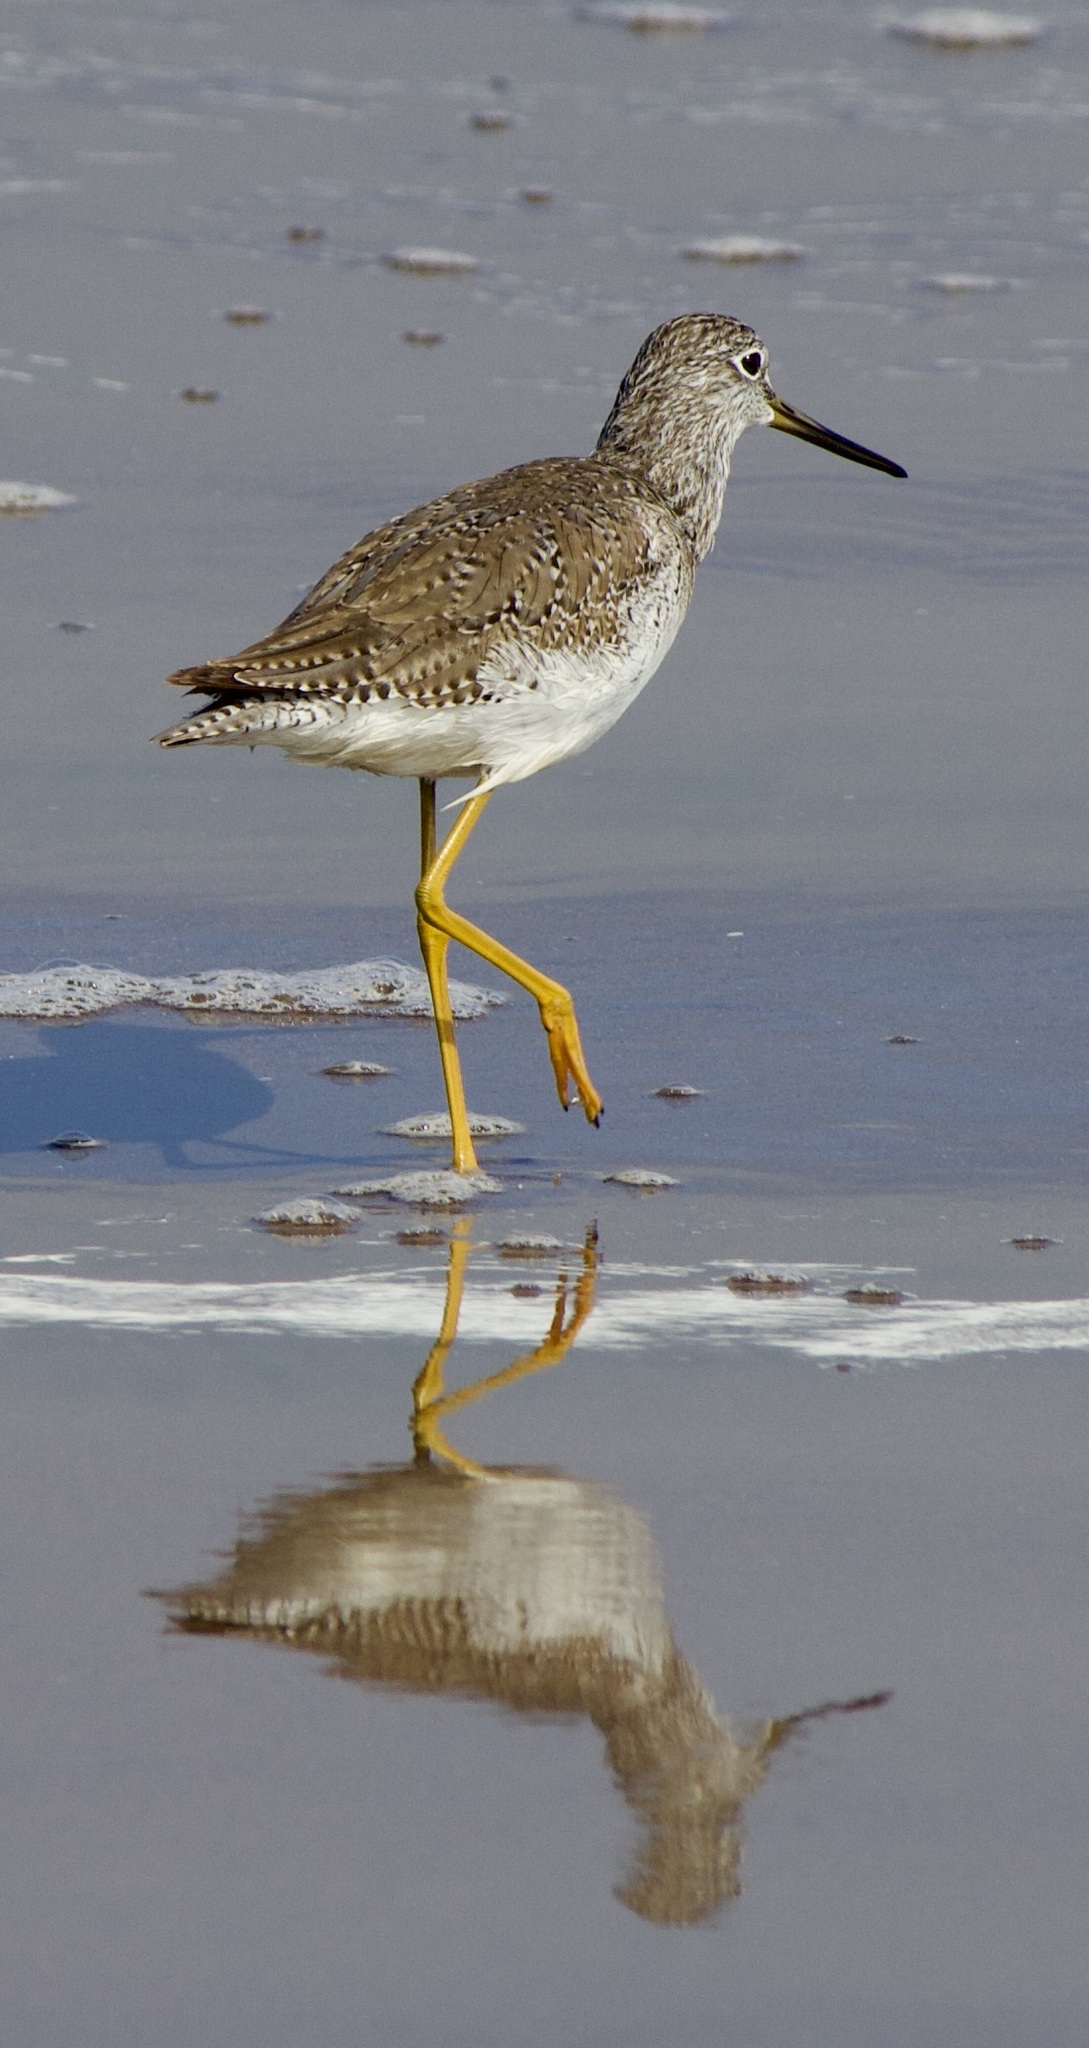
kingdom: Animalia
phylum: Chordata
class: Aves
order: Charadriiformes
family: Scolopacidae
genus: Tringa
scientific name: Tringa melanoleuca
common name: Greater yellowlegs
